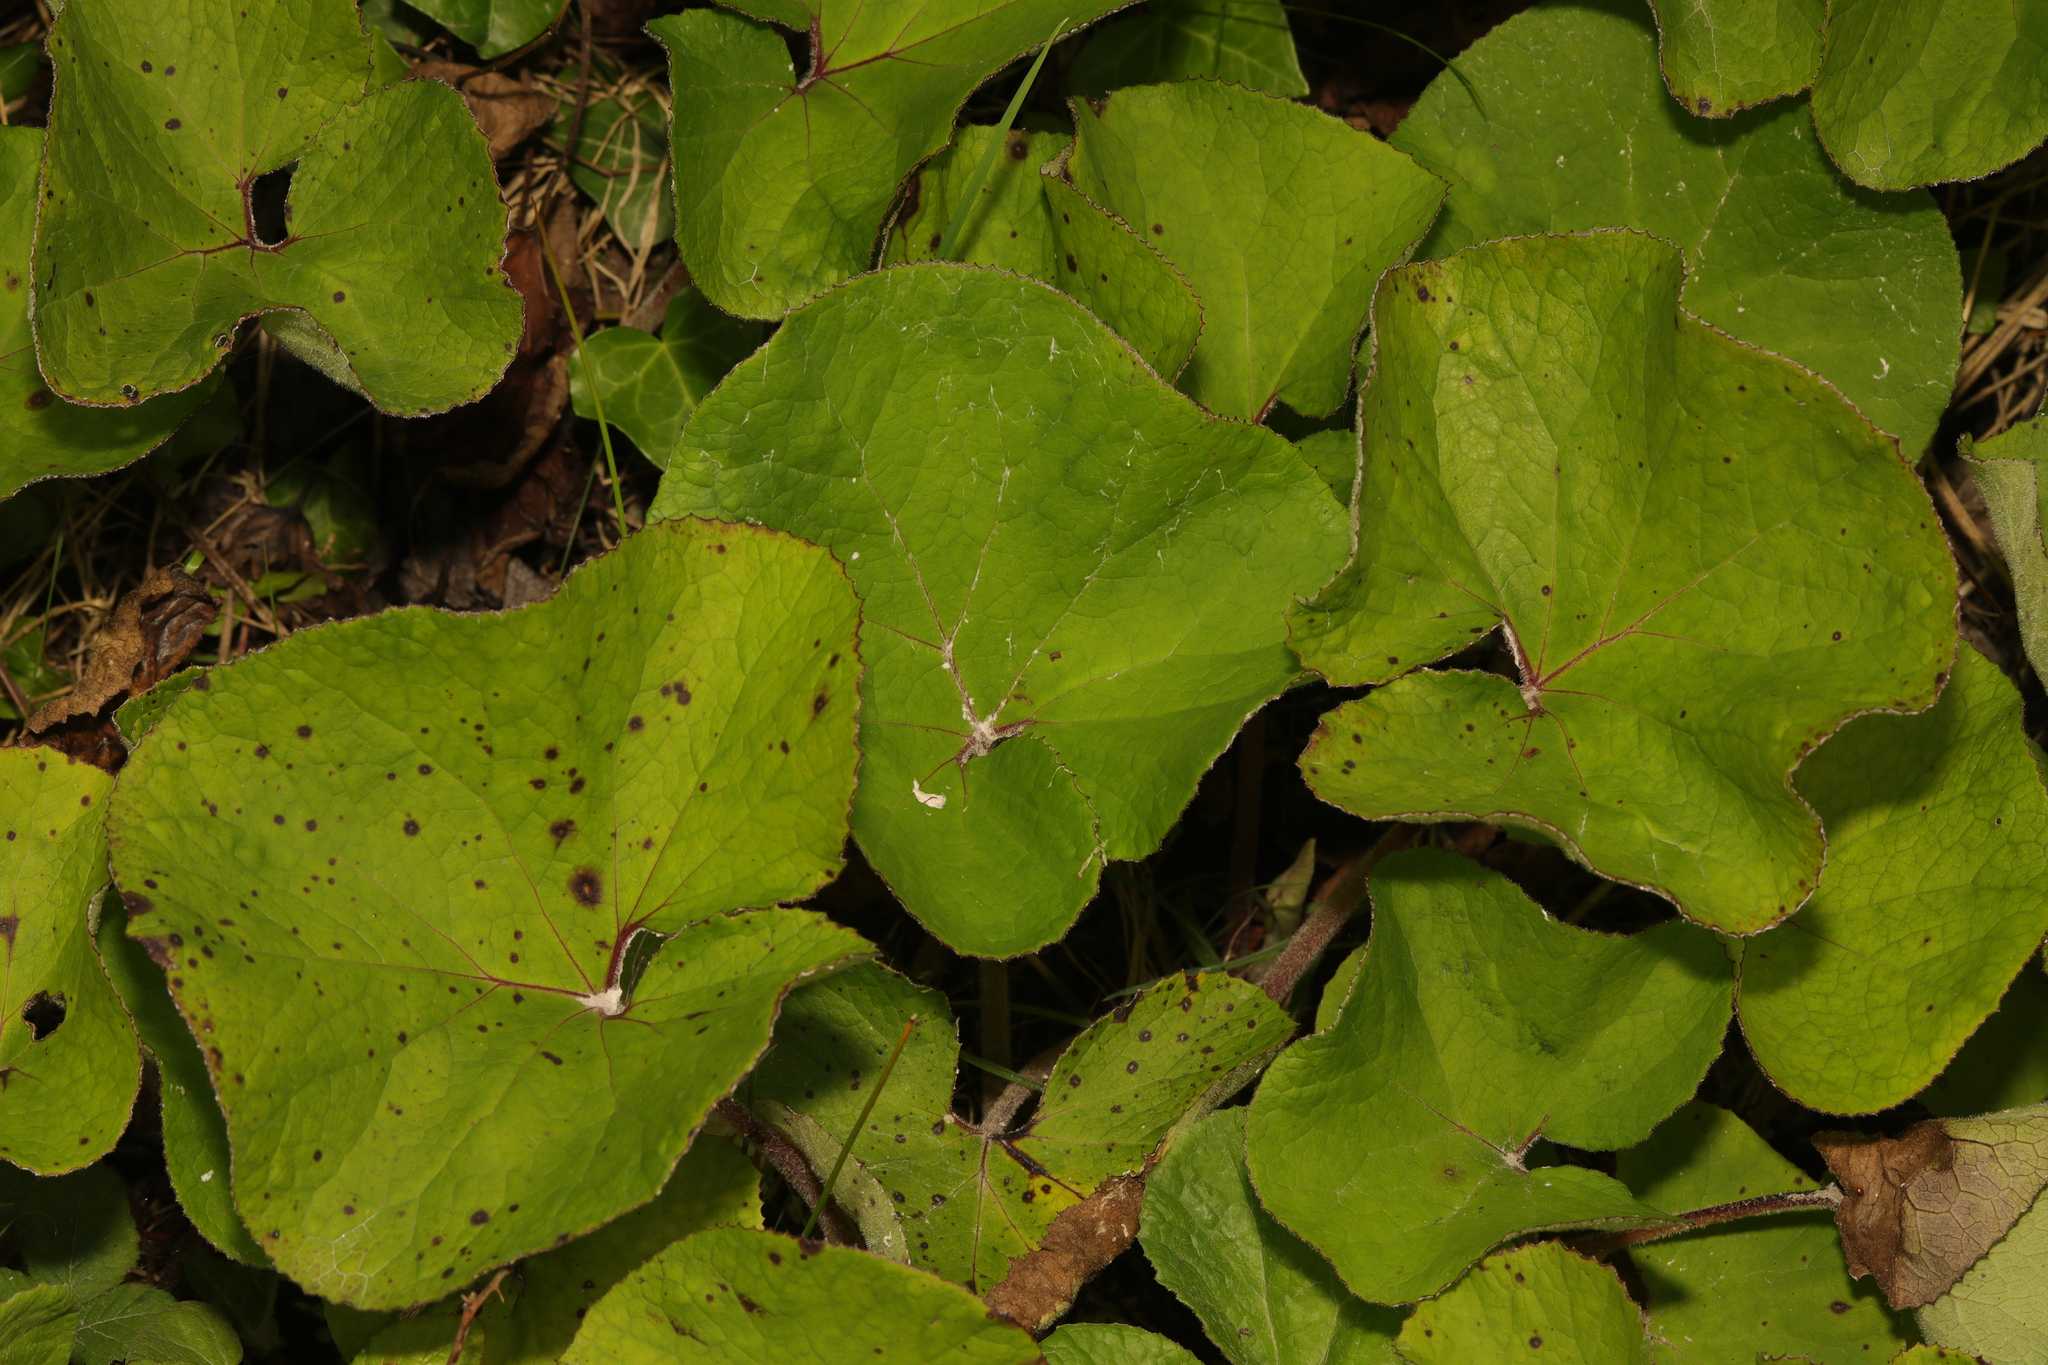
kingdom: Plantae
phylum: Tracheophyta
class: Magnoliopsida
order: Asterales
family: Asteraceae
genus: Tussilago
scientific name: Tussilago farfara
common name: Coltsfoot
